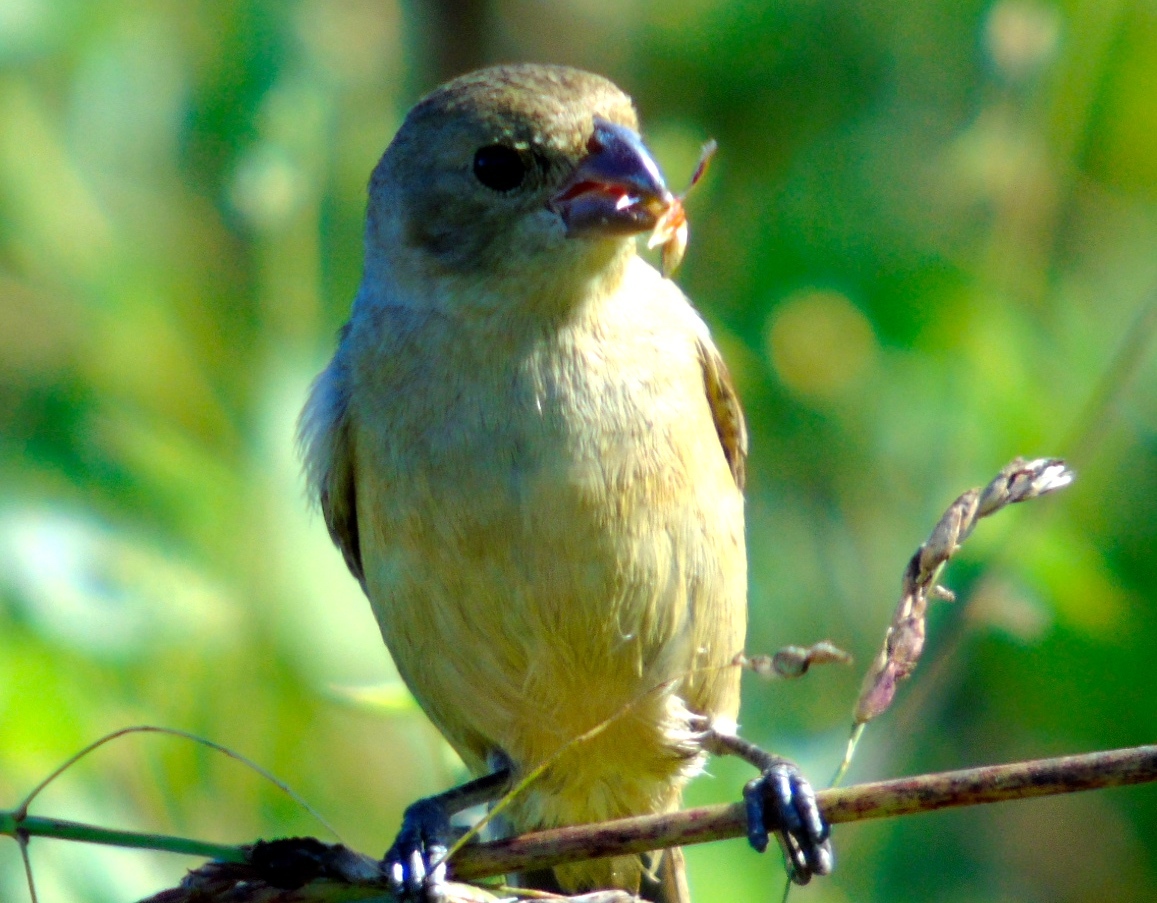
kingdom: Animalia
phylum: Chordata
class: Aves
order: Passeriformes
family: Thraupidae
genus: Sporophila
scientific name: Sporophila torqueola
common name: White-collared seedeater
